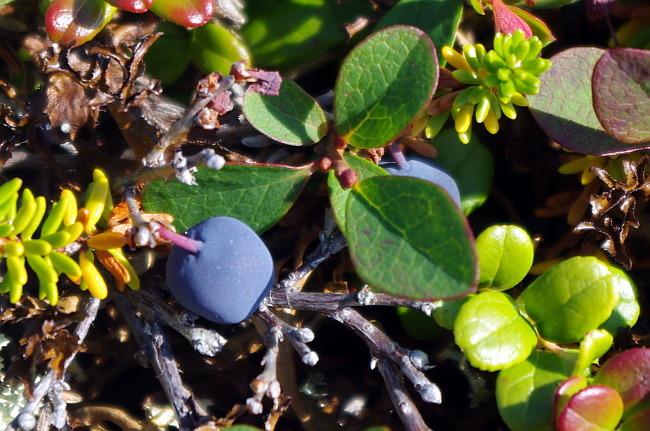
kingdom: Plantae
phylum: Tracheophyta
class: Magnoliopsida
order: Ericales
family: Ericaceae
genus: Vaccinium
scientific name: Vaccinium uliginosum
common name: Bog bilberry
